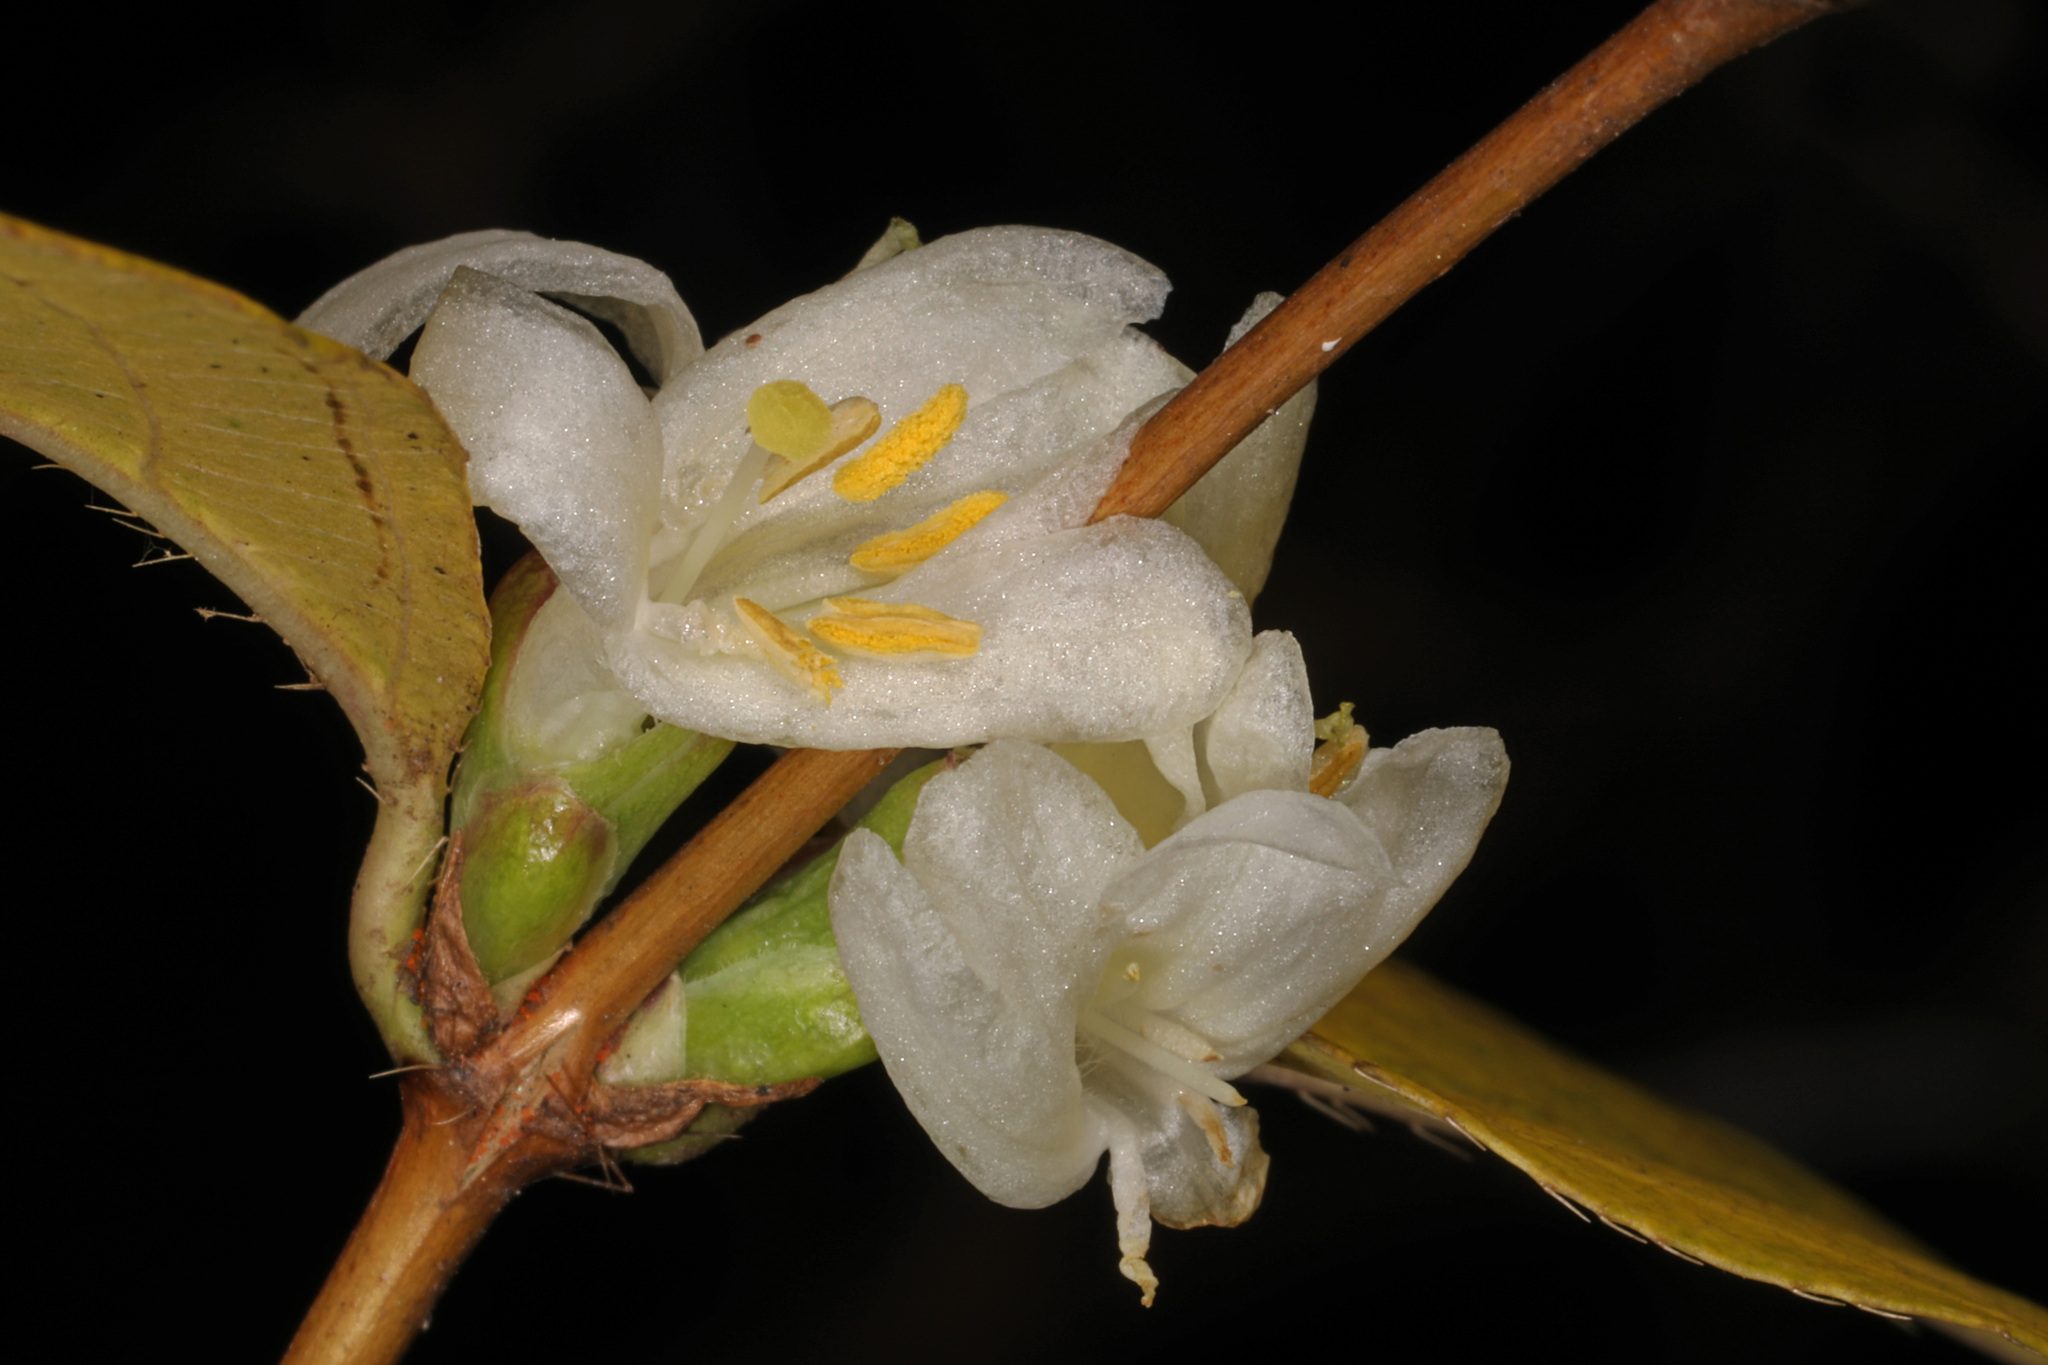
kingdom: Plantae
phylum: Tracheophyta
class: Magnoliopsida
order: Dipsacales
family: Caprifoliaceae
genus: Lonicera
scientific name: Lonicera fragrantissima
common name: Fragrant honeysuckle
